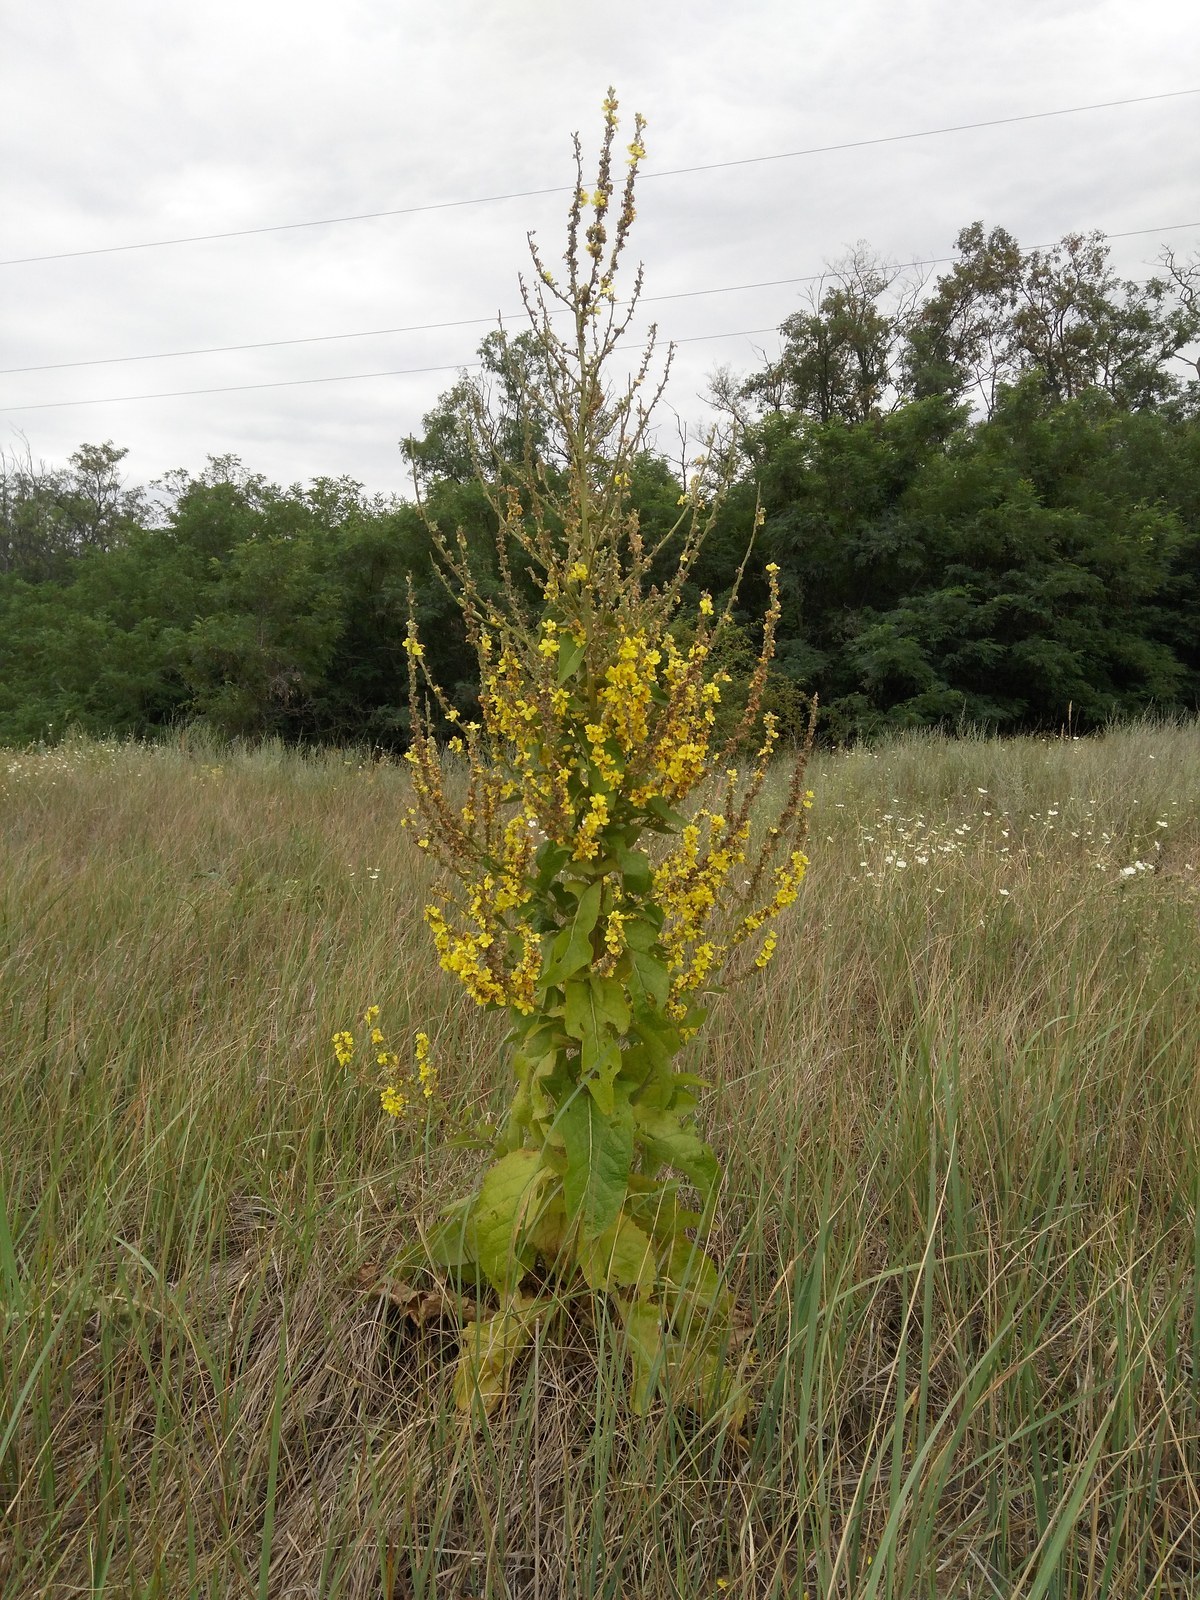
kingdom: Plantae
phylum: Tracheophyta
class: Magnoliopsida
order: Lamiales
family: Scrophulariaceae
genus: Verbascum
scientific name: Verbascum lychnitis
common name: White mullein
